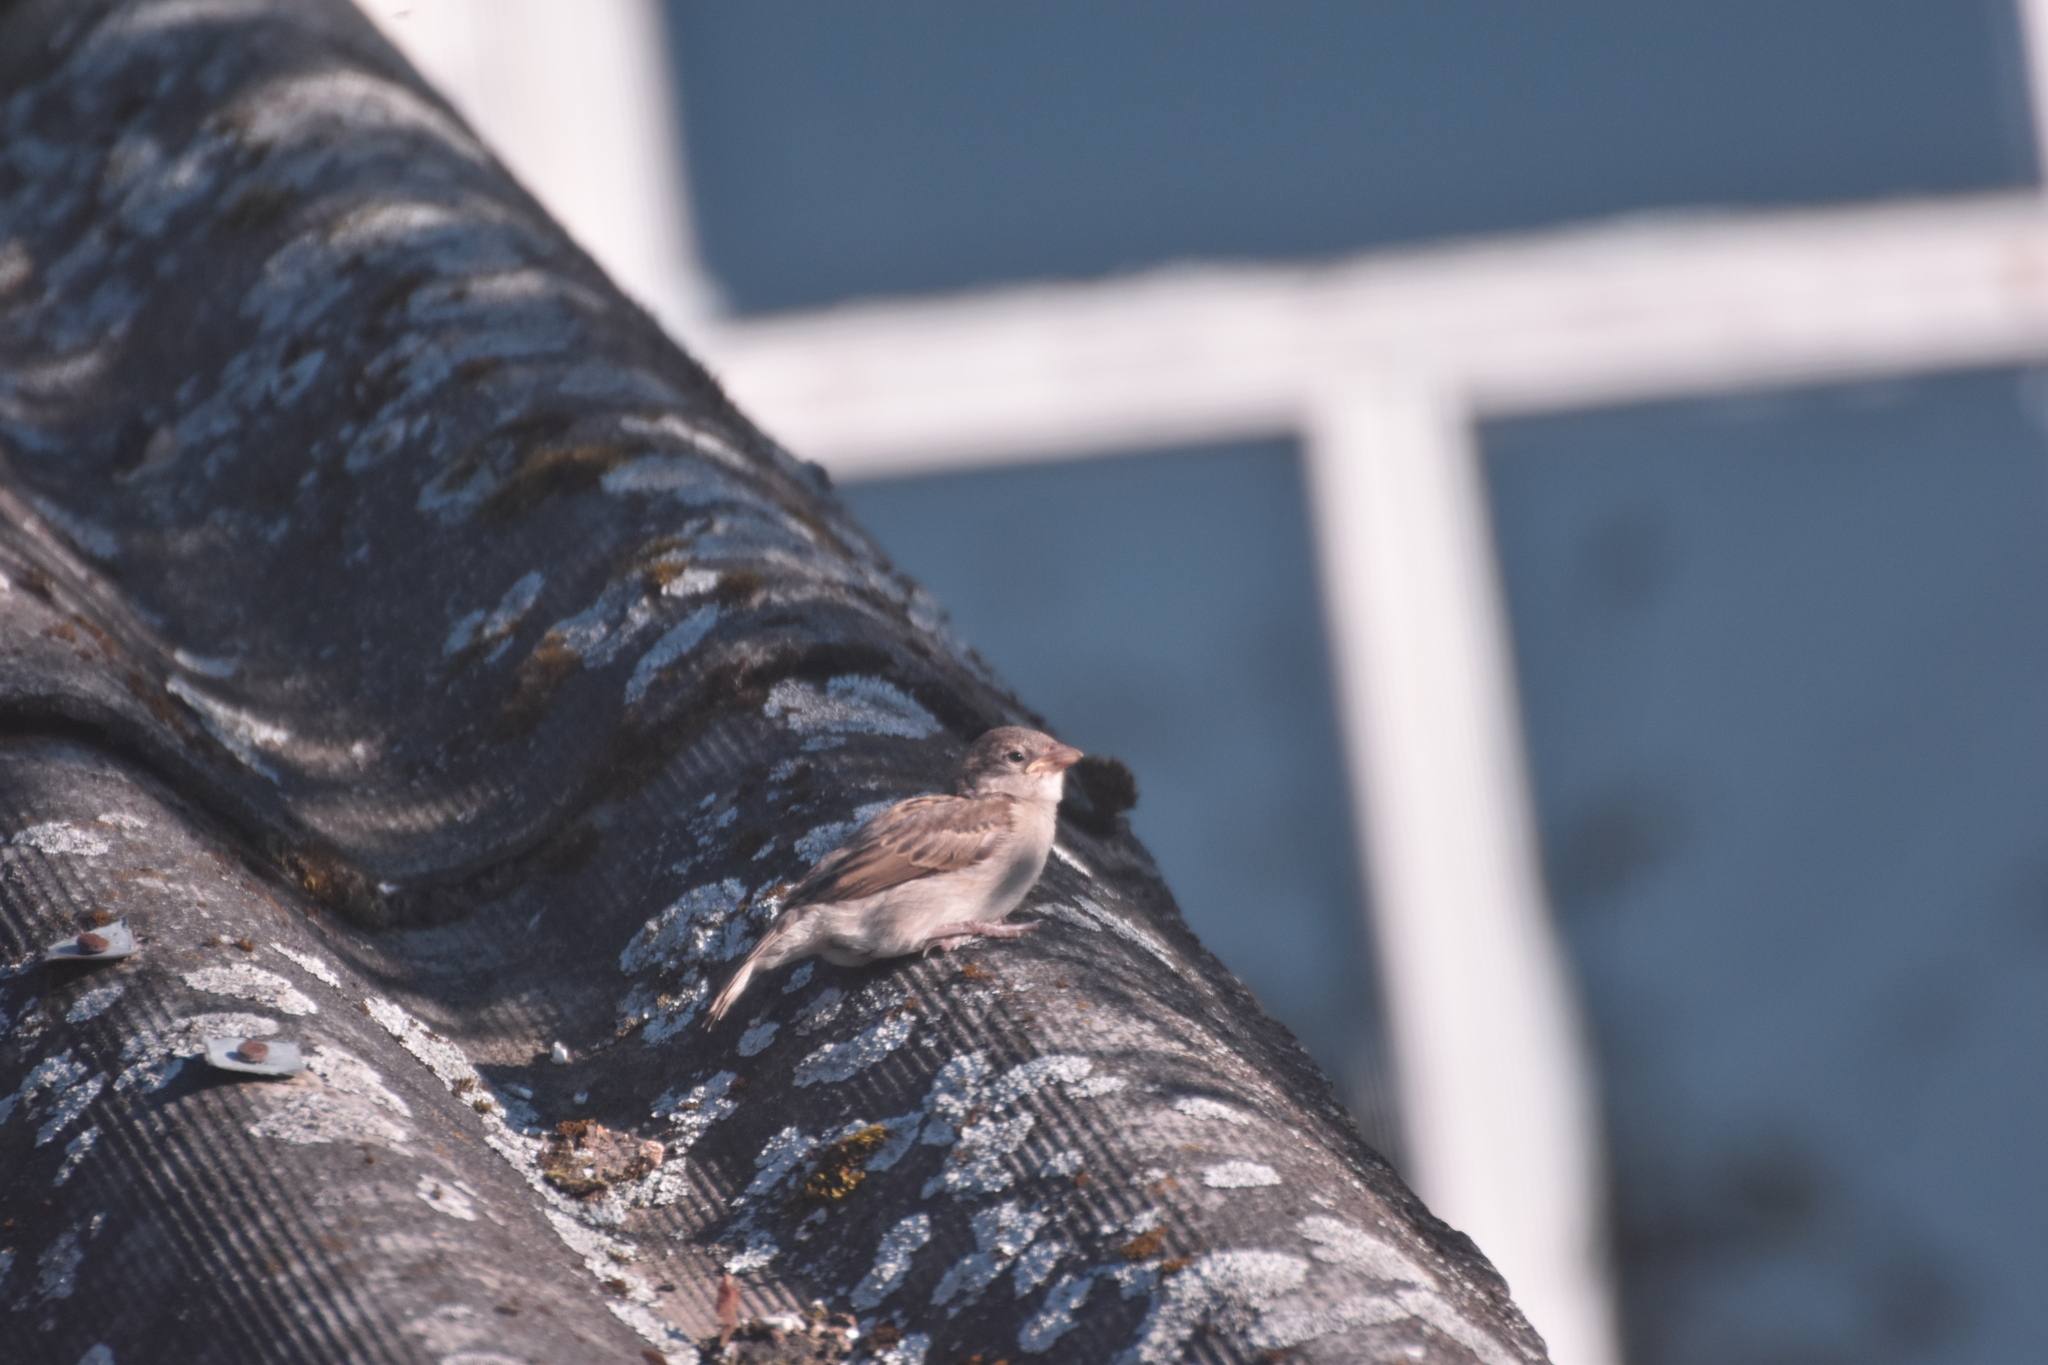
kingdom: Animalia
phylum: Chordata
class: Aves
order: Passeriformes
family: Passeridae
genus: Passer
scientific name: Passer domesticus
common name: House sparrow
